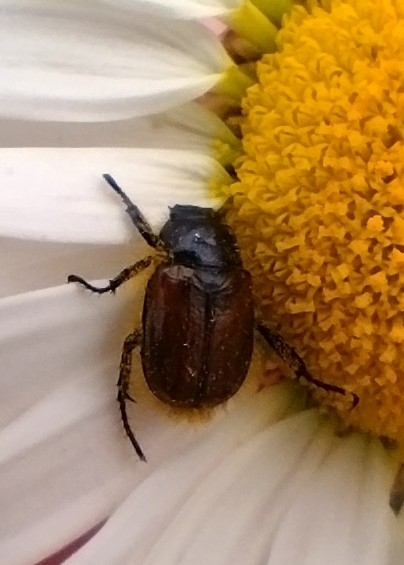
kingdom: Animalia
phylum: Arthropoda
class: Insecta
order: Coleoptera
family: Scarabaeidae
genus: Phyllopertha
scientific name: Phyllopertha horticola
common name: Garden chafer
